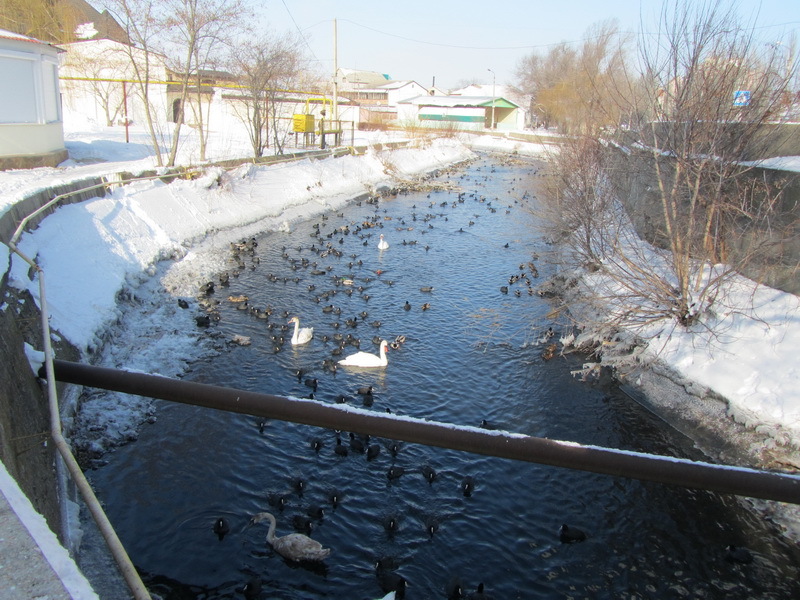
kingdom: Animalia
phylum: Chordata
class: Aves
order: Gruiformes
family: Rallidae
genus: Fulica
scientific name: Fulica atra
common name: Eurasian coot
